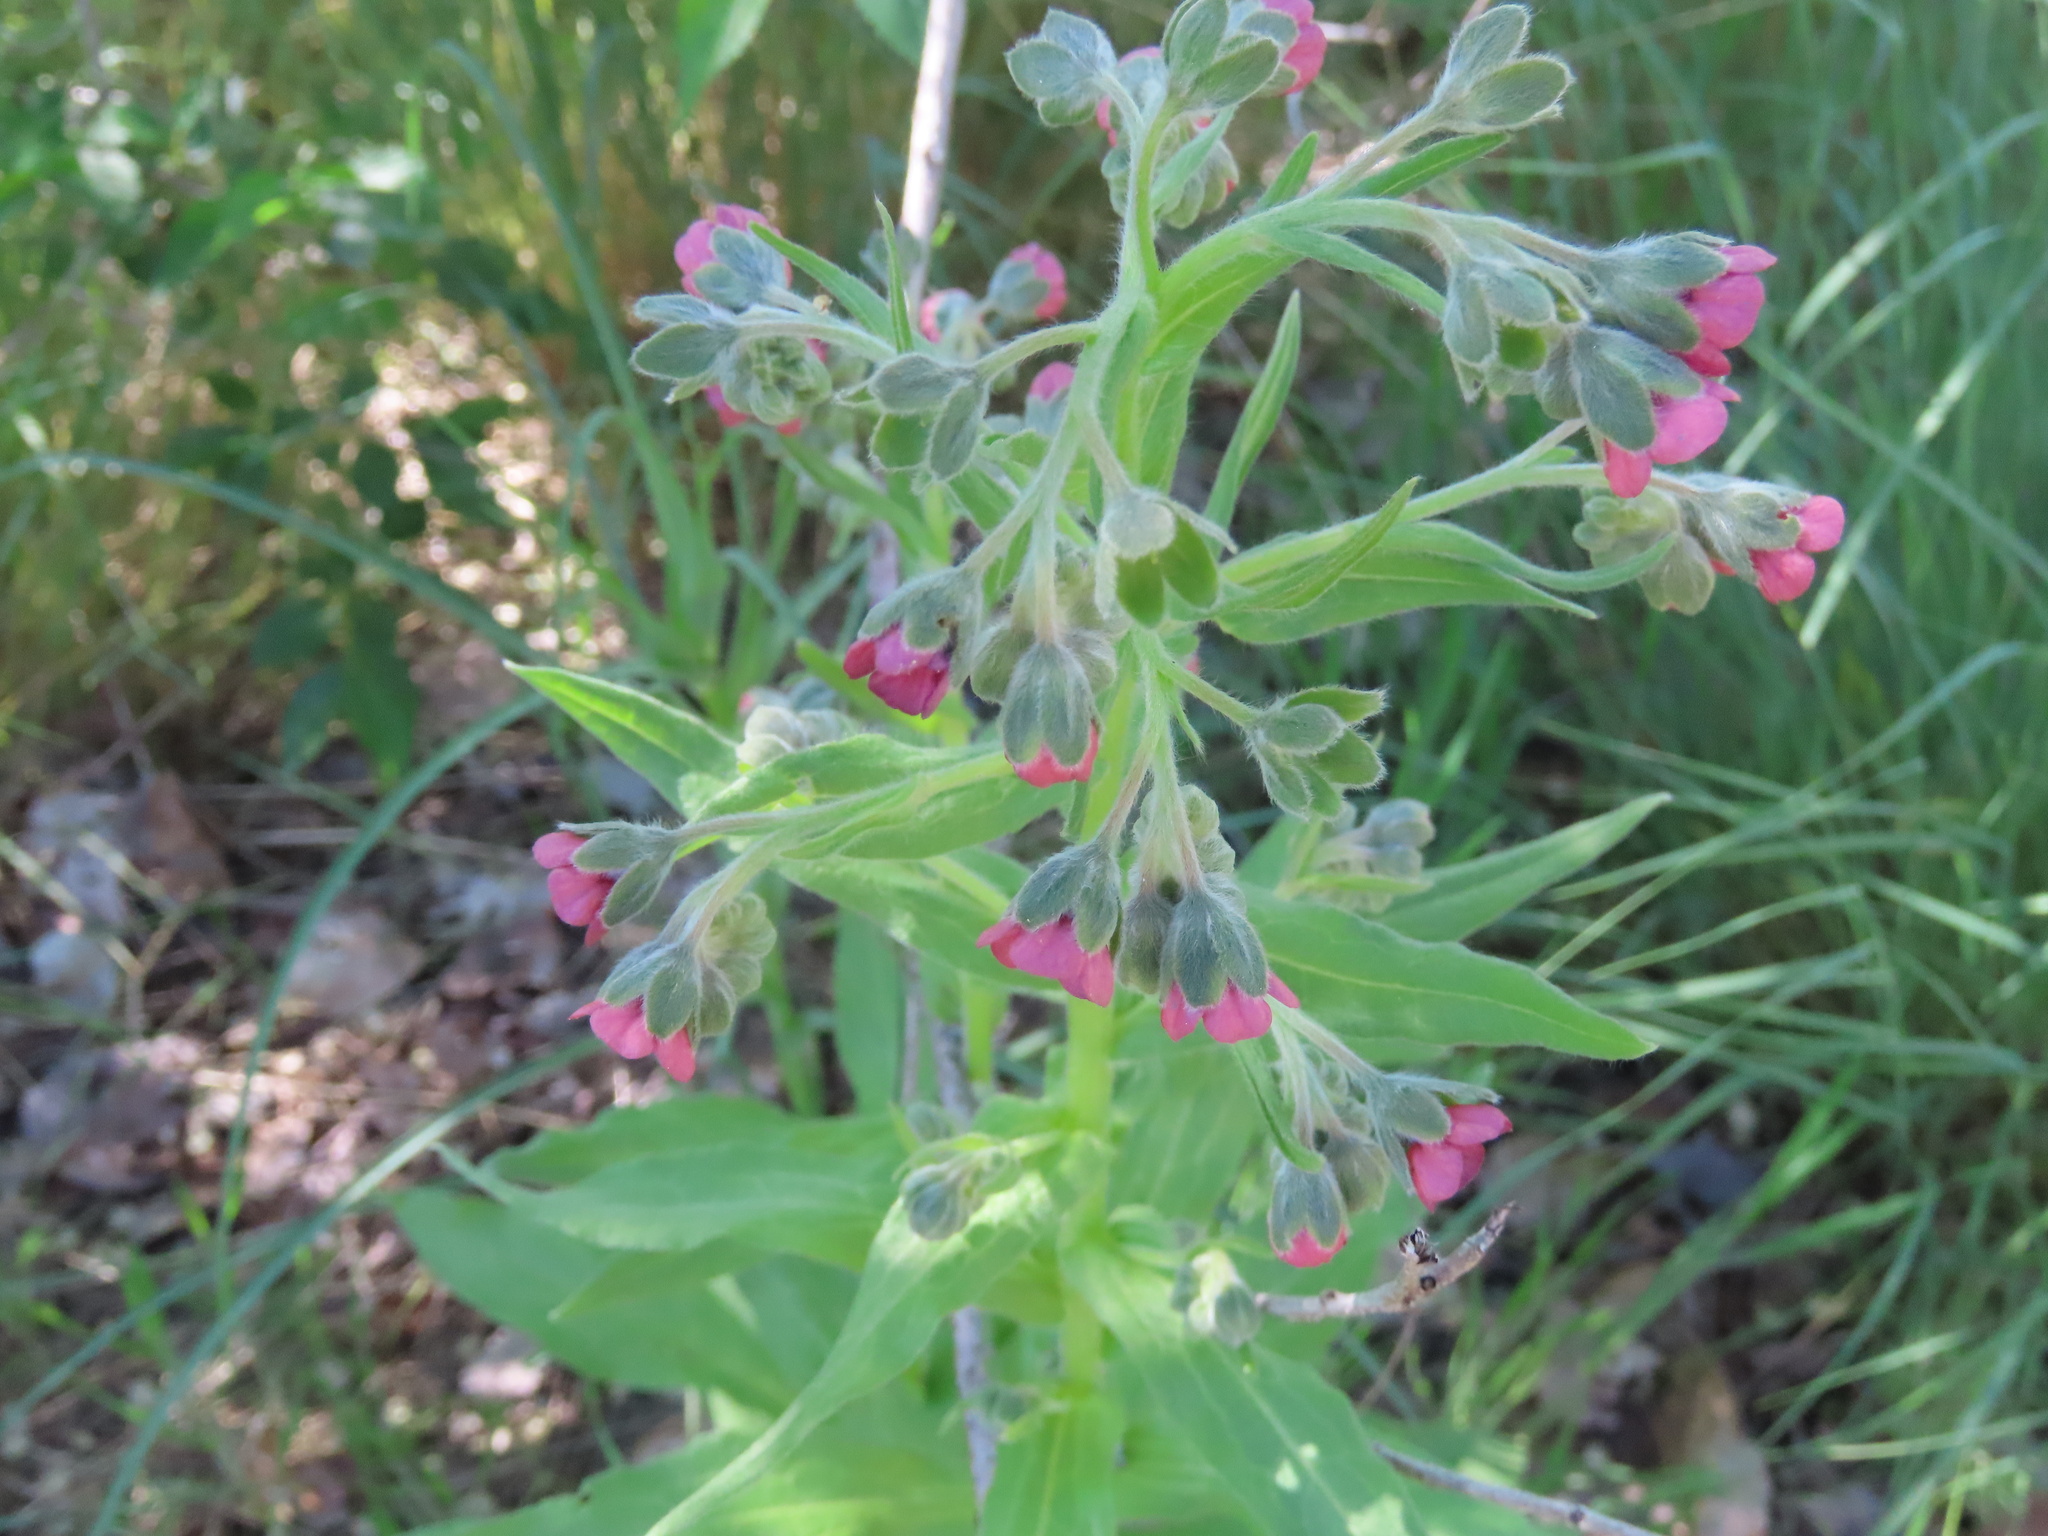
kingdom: Plantae
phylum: Tracheophyta
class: Magnoliopsida
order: Boraginales
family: Boraginaceae
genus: Cynoglossum
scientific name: Cynoglossum officinale
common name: Hound's-tongue
